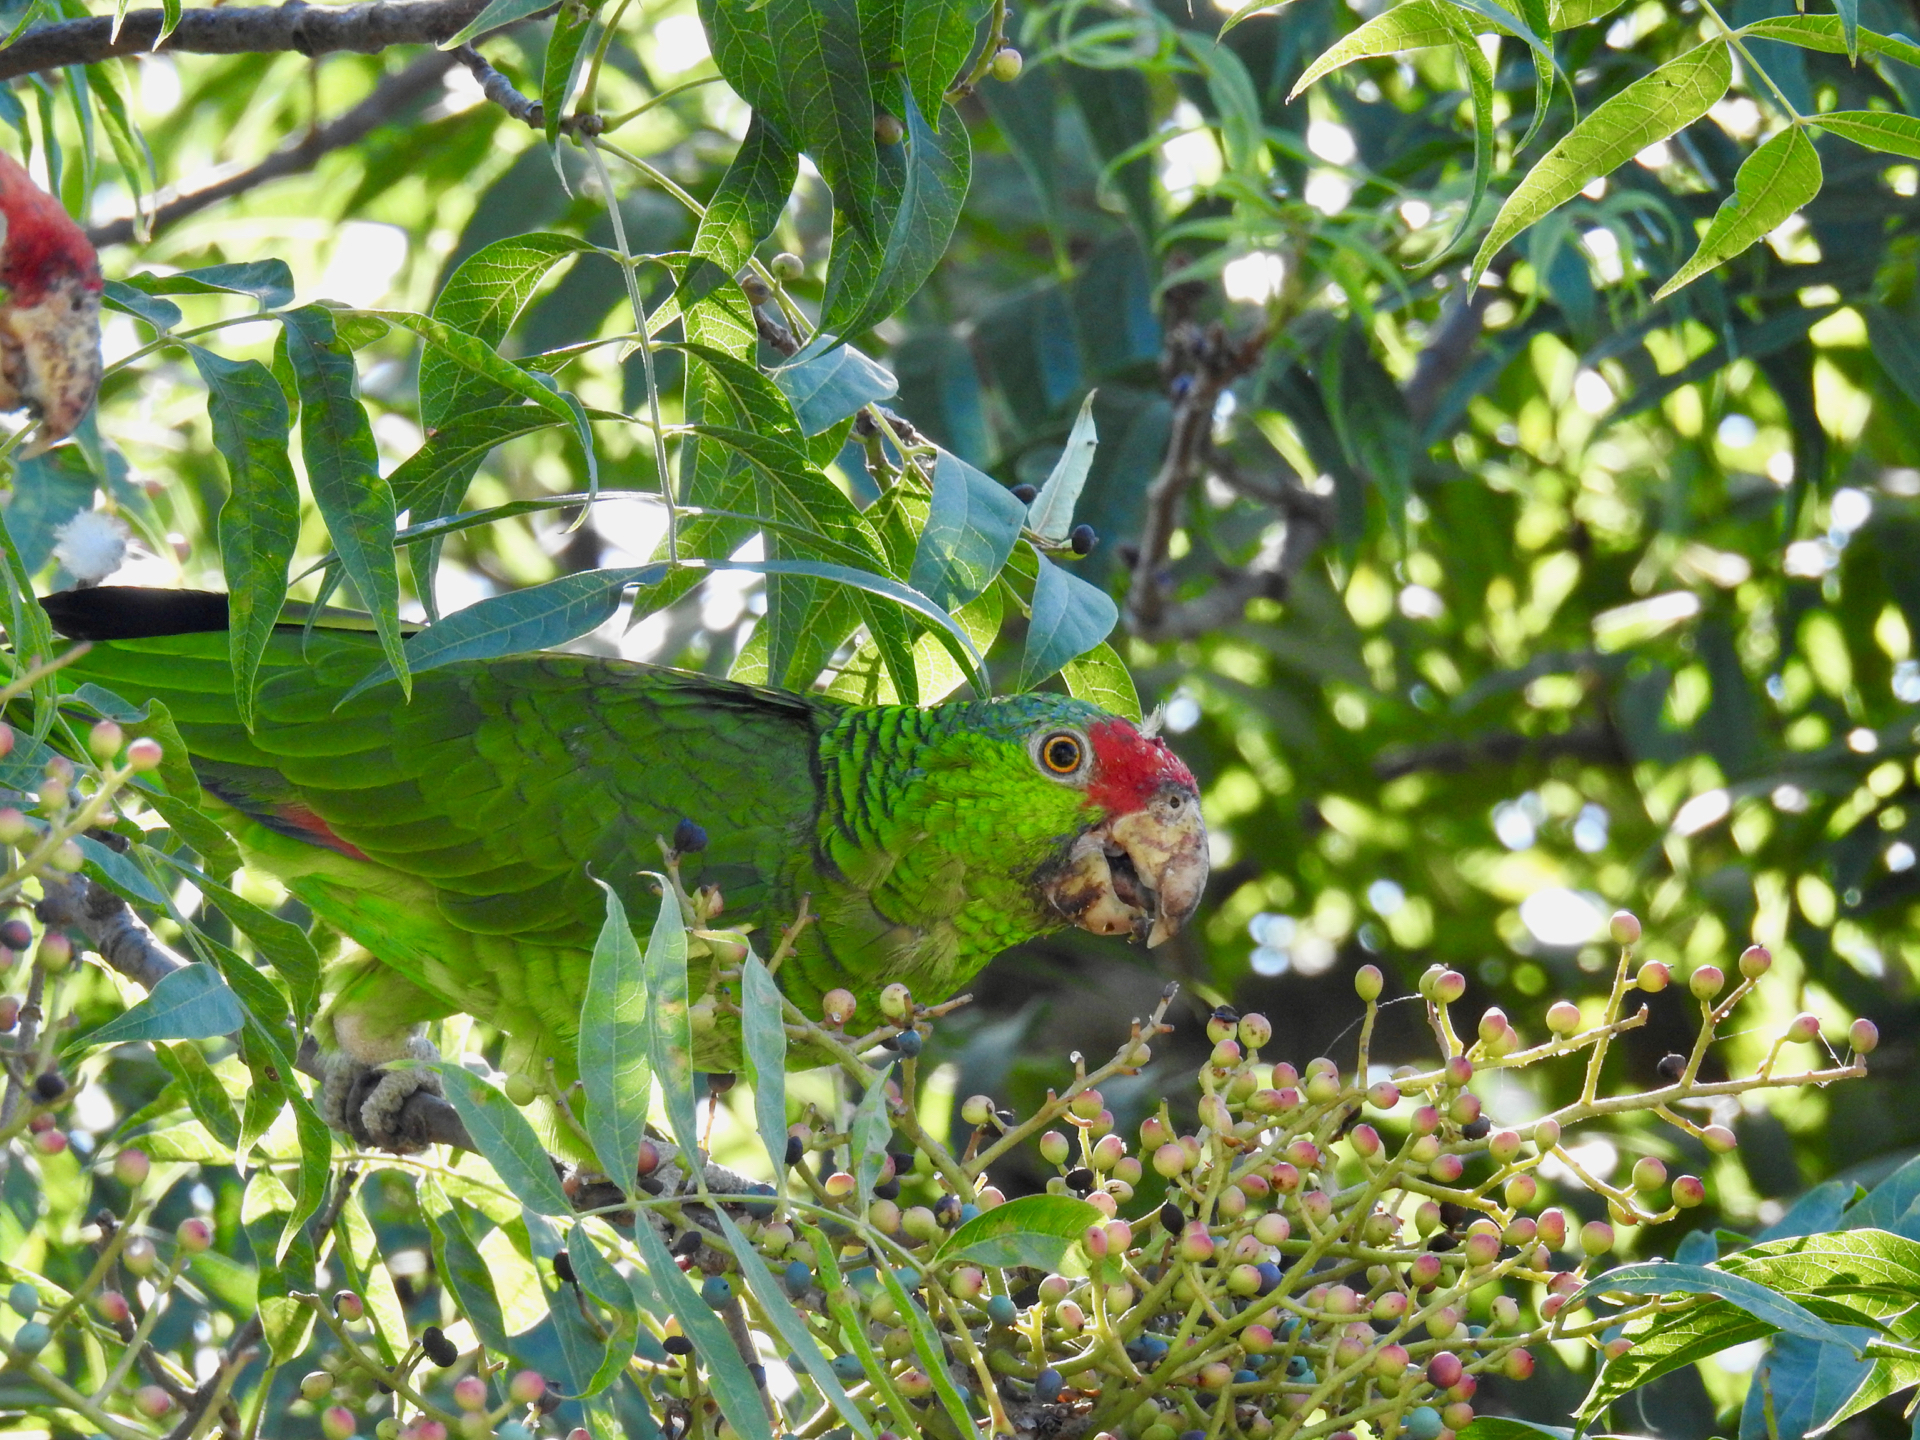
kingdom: Animalia
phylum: Chordata
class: Aves
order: Psittaciformes
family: Psittacidae
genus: Amazona
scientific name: Amazona viridigenalis
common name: Red-crowned amazon
